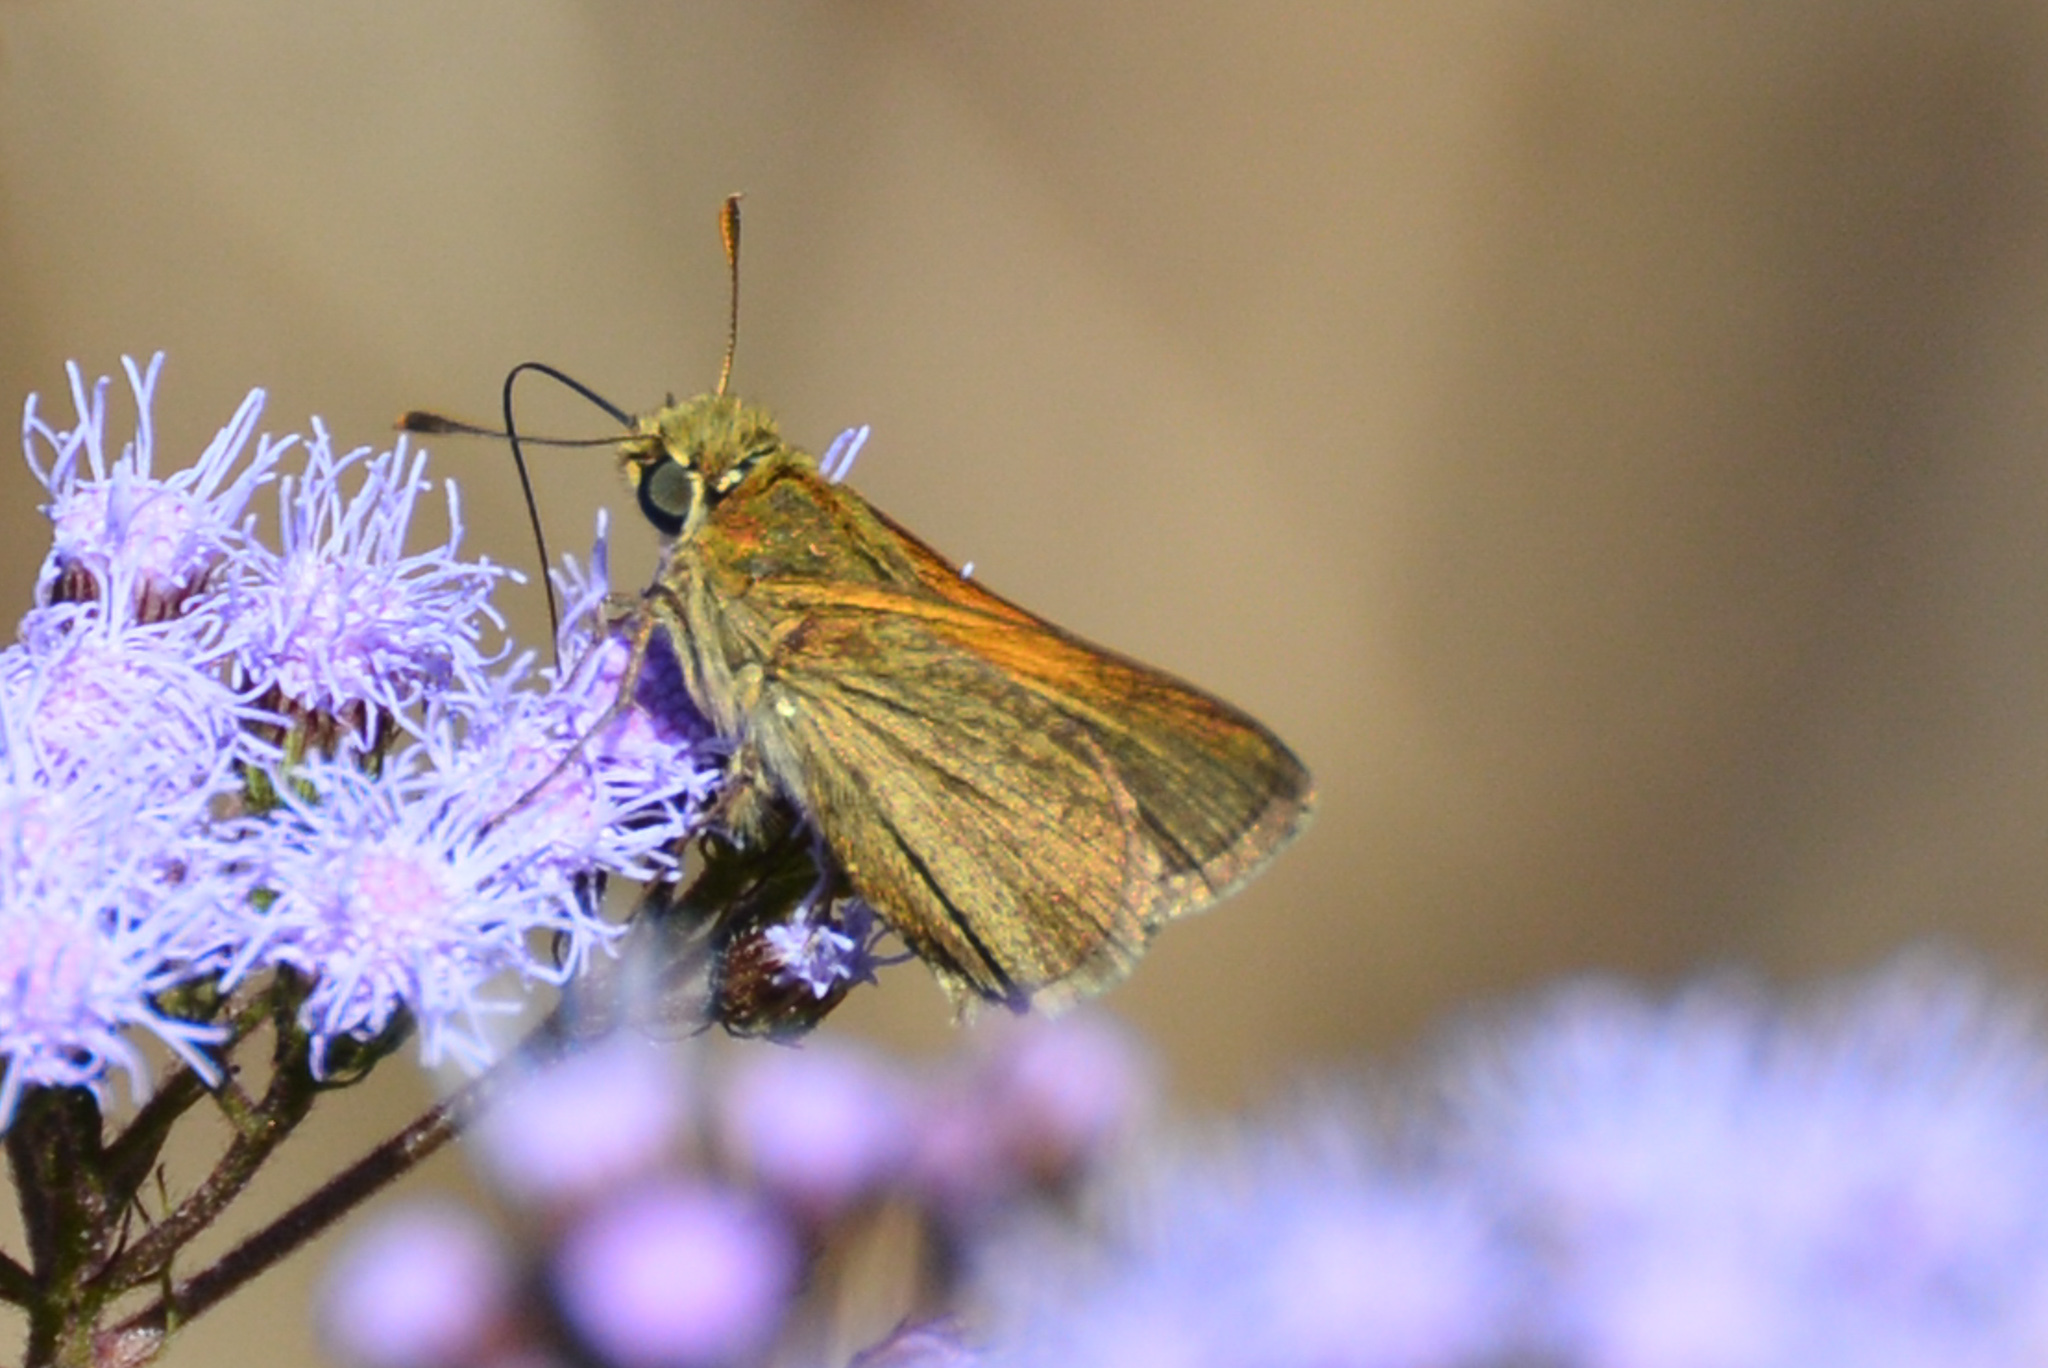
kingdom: Animalia
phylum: Arthropoda
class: Insecta
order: Lepidoptera
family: Hesperiidae
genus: Polites
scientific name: Polites themistocles
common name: Tawny-edged skipper
